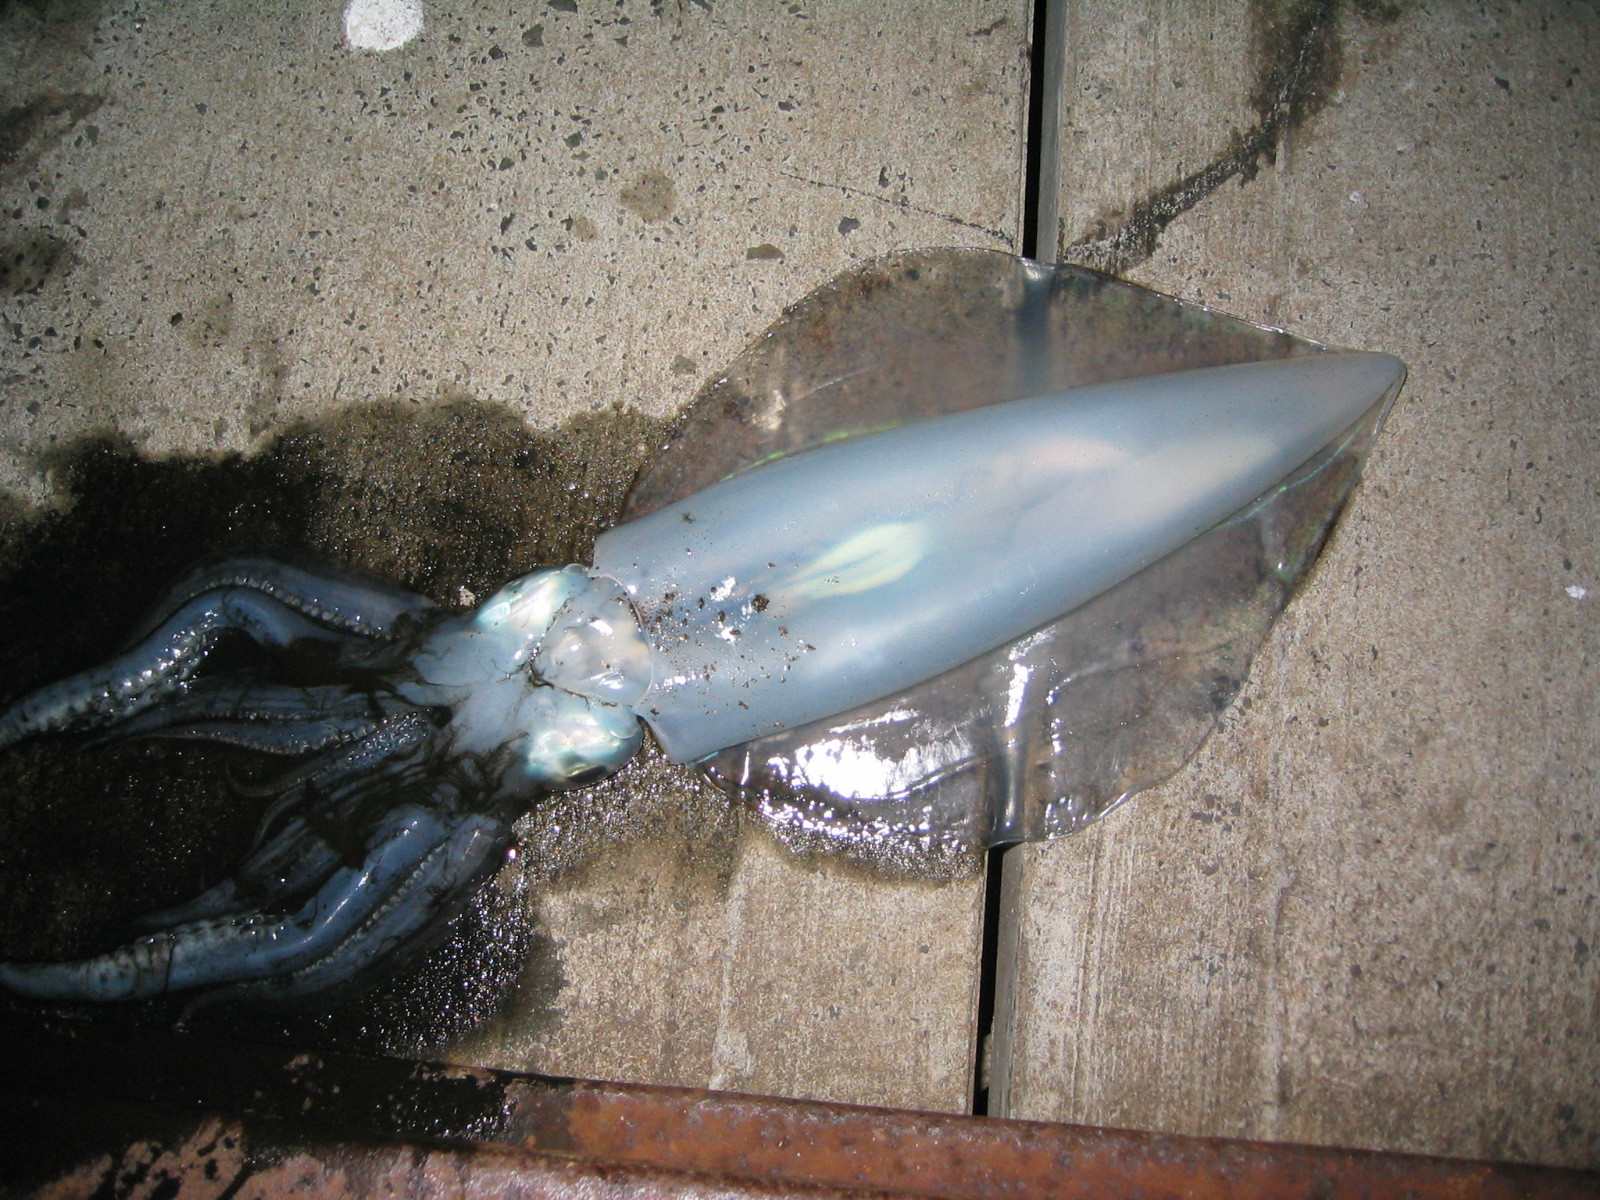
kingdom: Animalia
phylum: Mollusca
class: Cephalopoda
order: Myopsida
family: Loliginidae
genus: Sepioteuthis
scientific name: Sepioteuthis australis
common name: Southern reef squid
